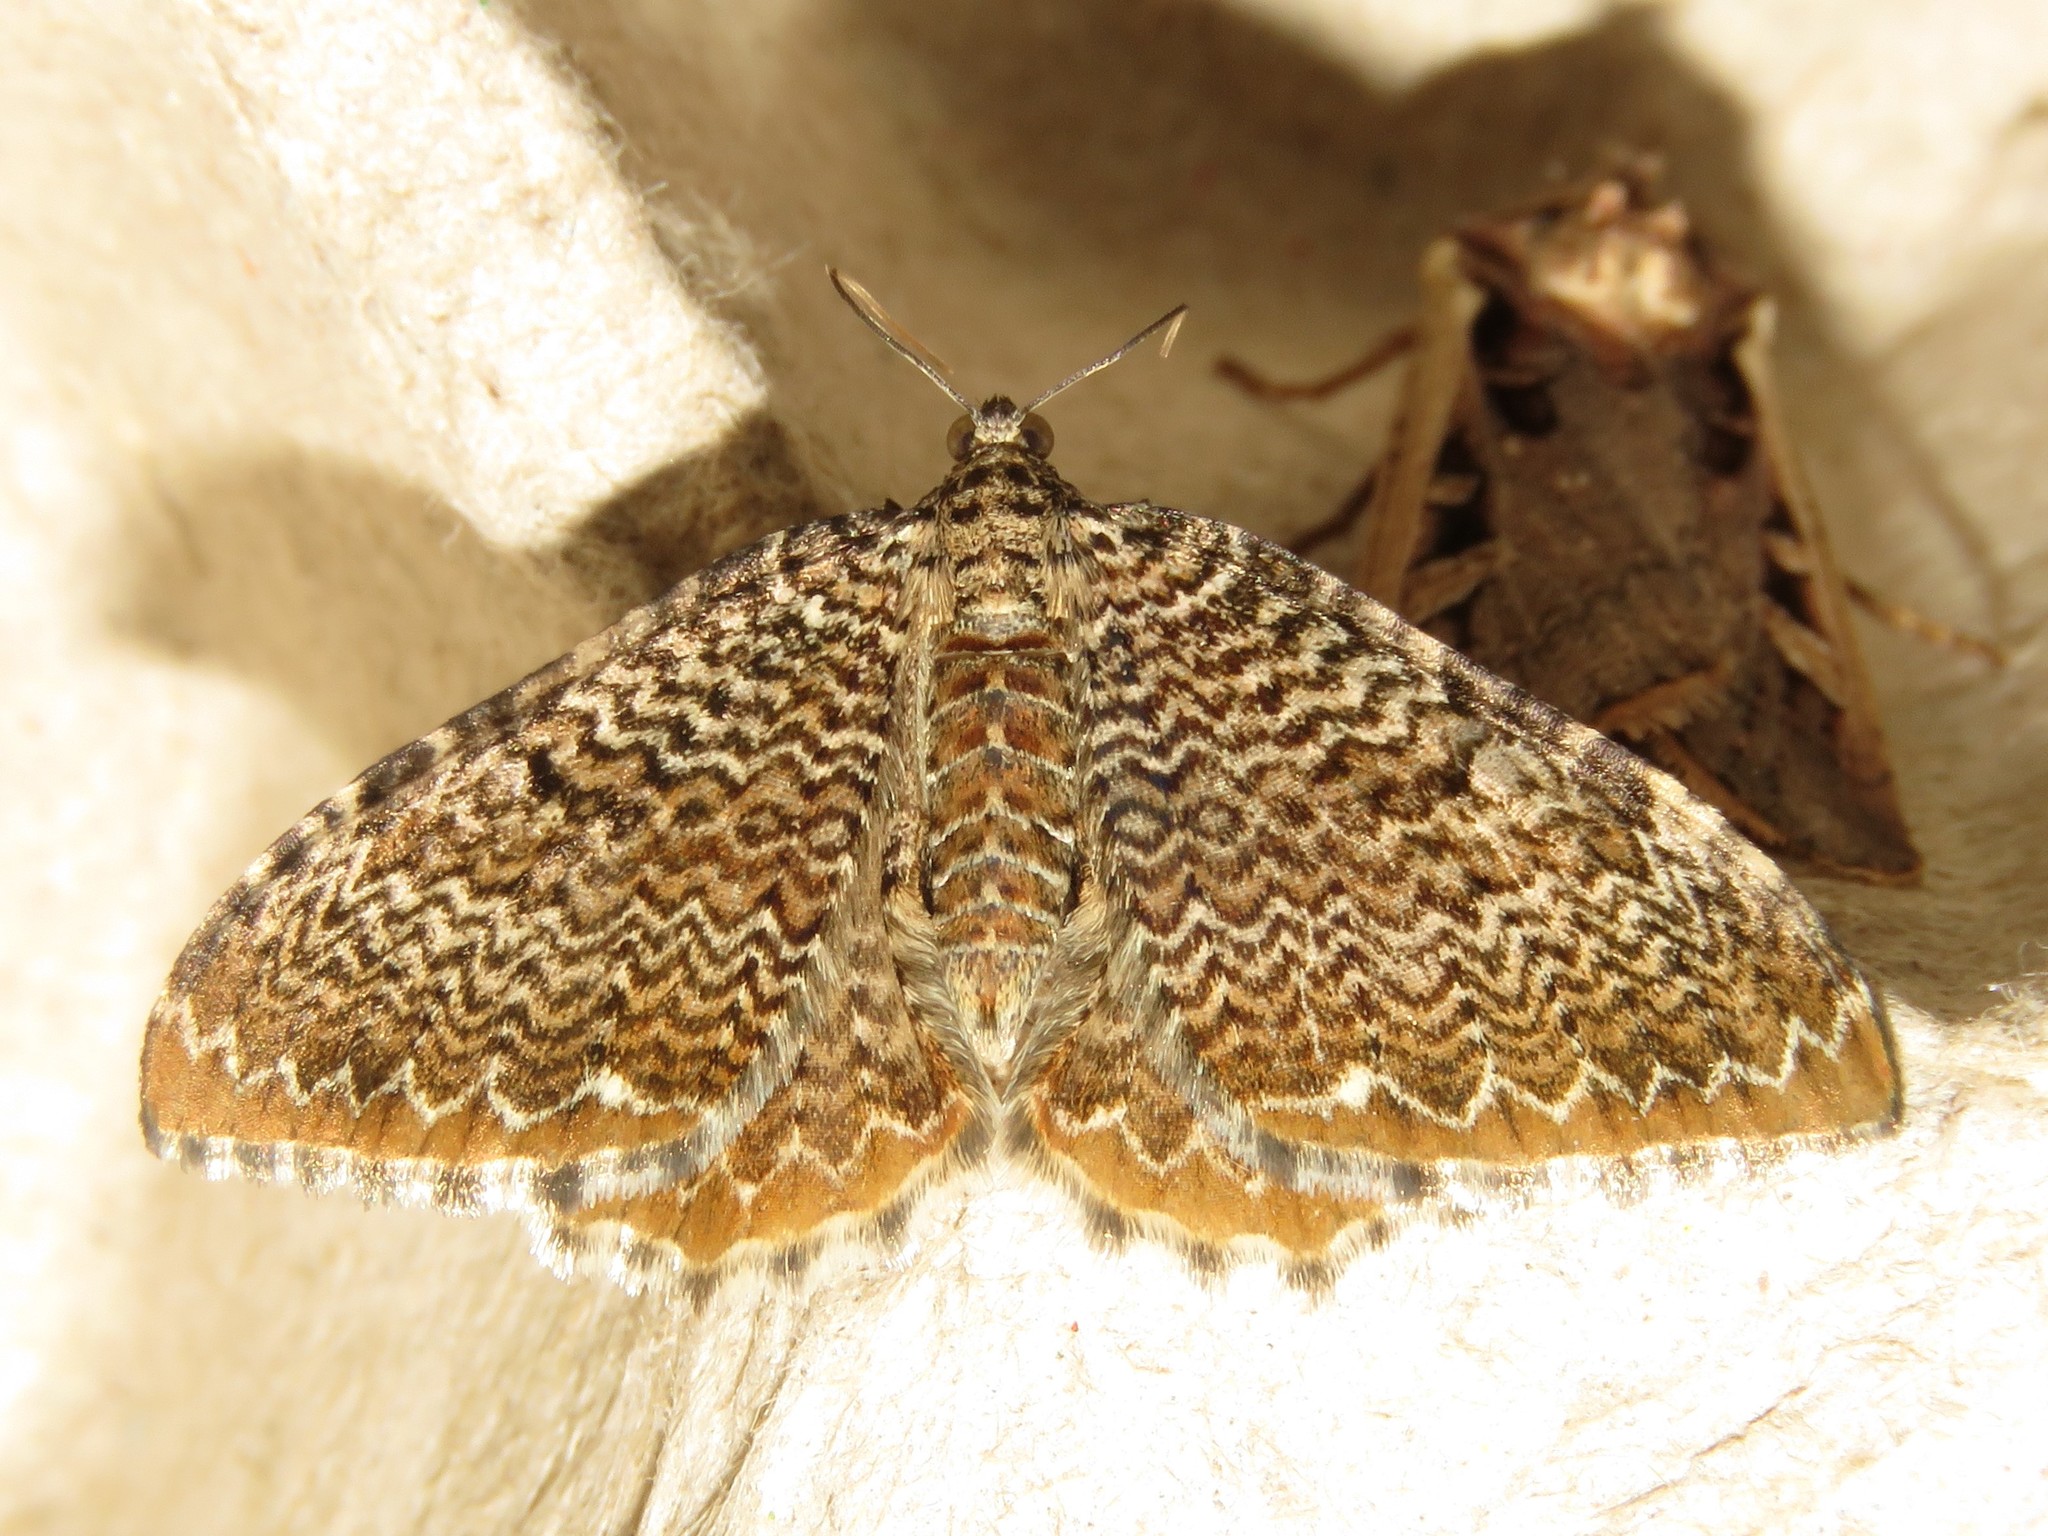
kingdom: Animalia
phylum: Arthropoda
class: Insecta
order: Lepidoptera
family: Geometridae
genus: Rheumaptera
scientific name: Rheumaptera
